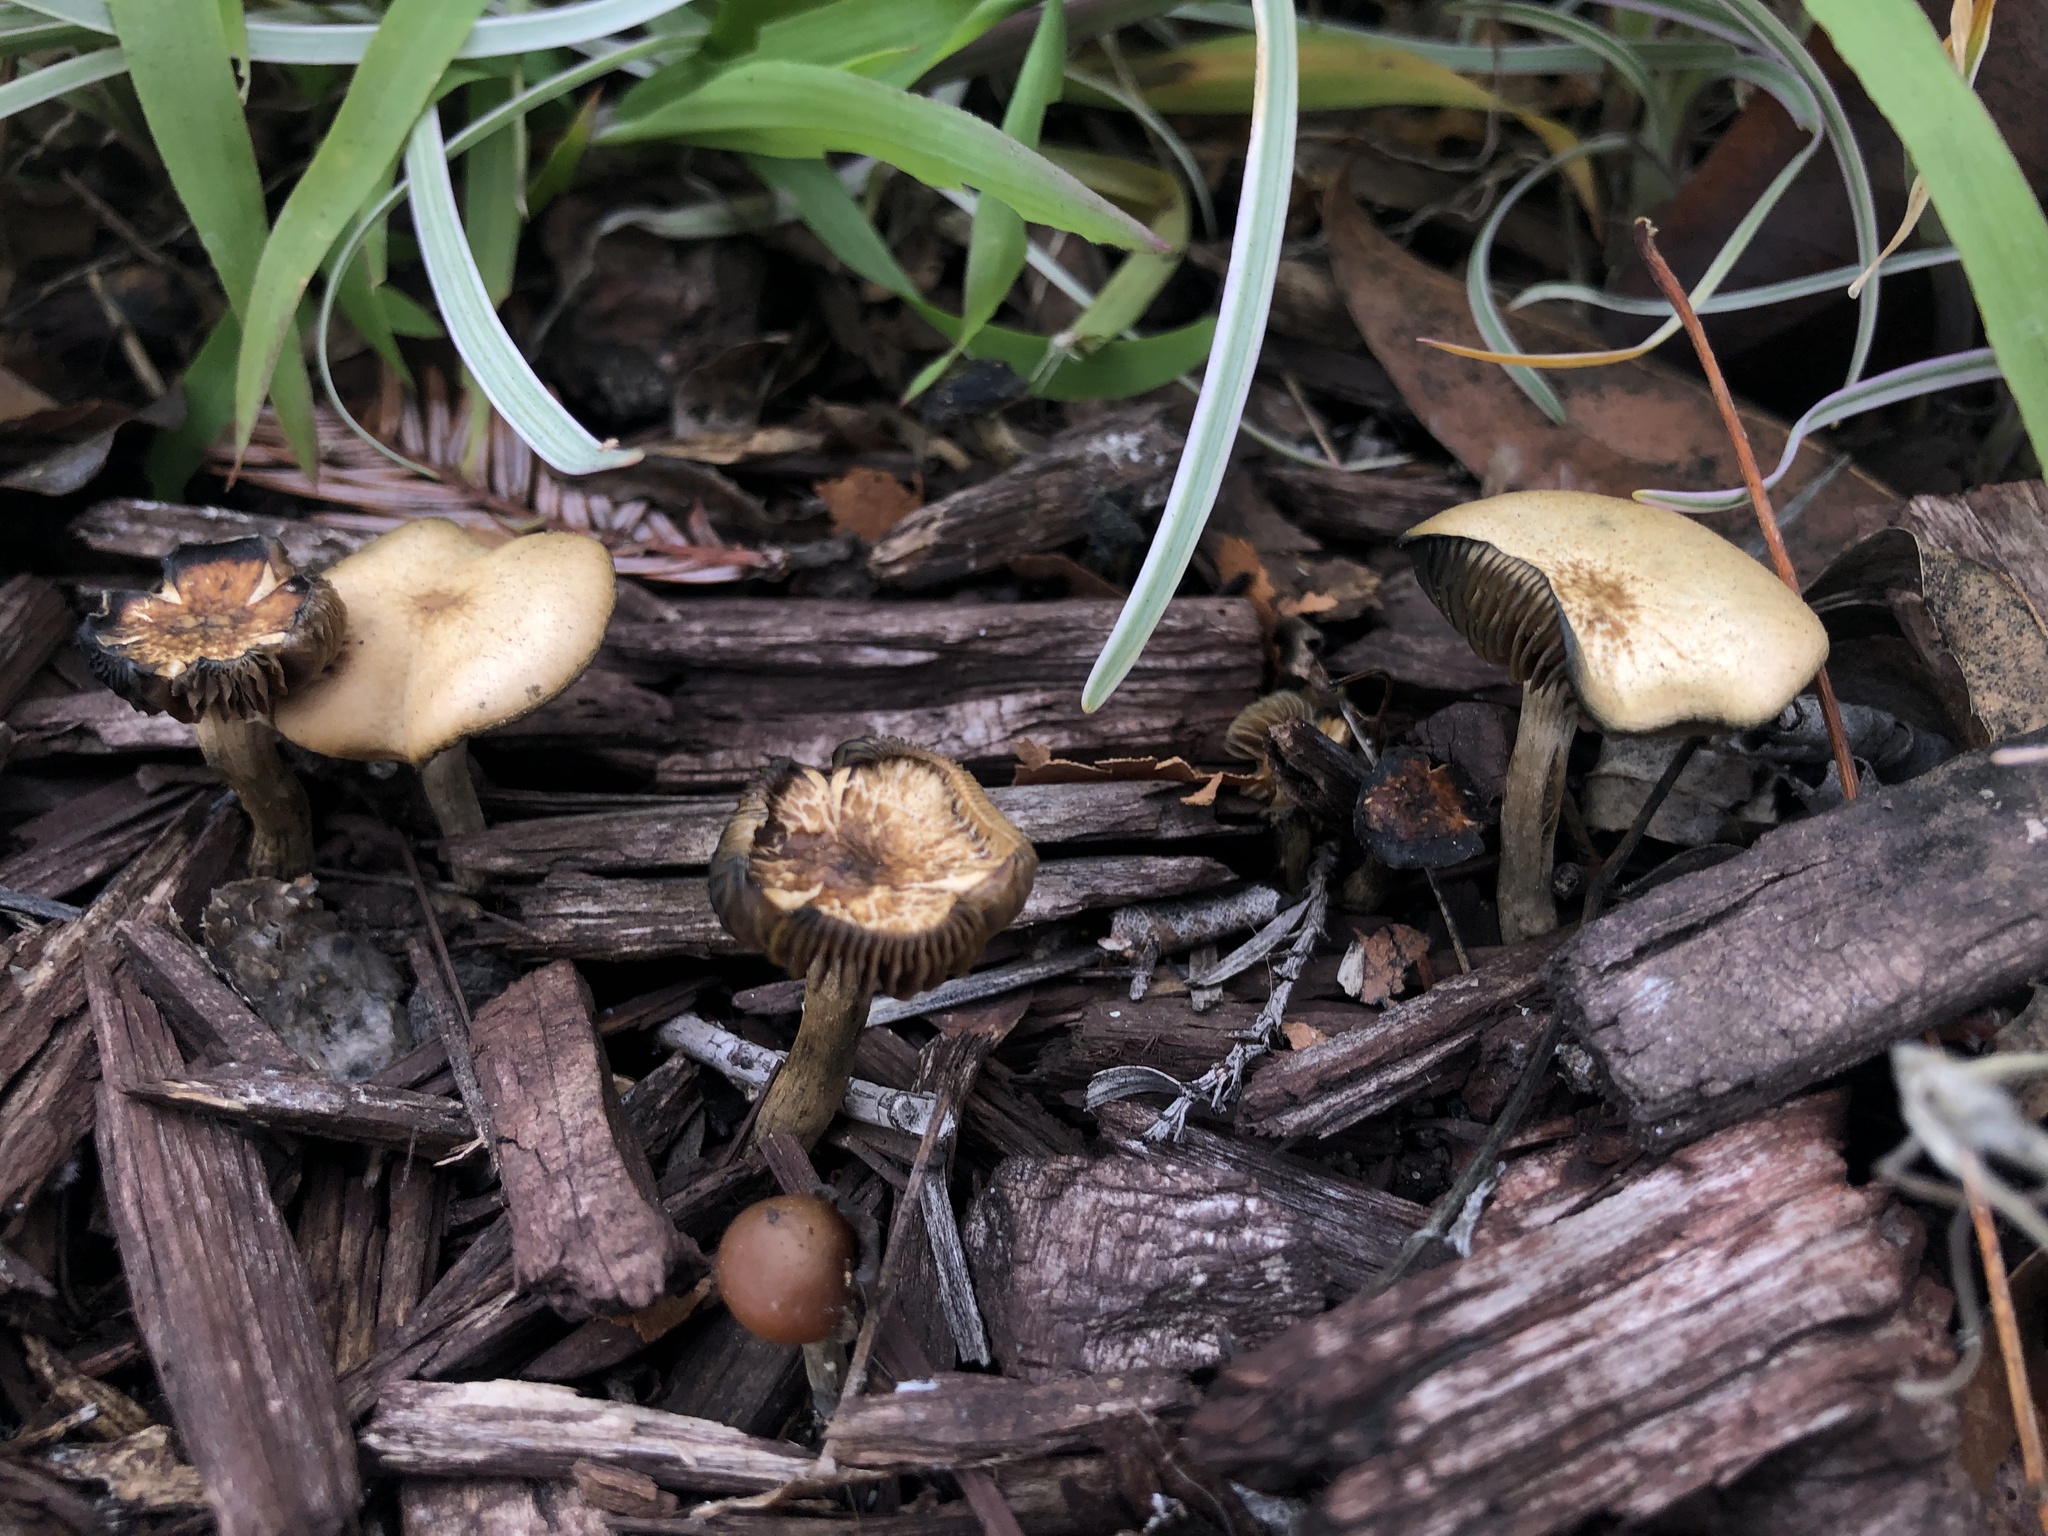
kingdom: Fungi
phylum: Basidiomycota
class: Agaricomycetes
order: Agaricales
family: Hymenogastraceae
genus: Psilocybe
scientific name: Psilocybe cyanescens
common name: Blueleg brownie
